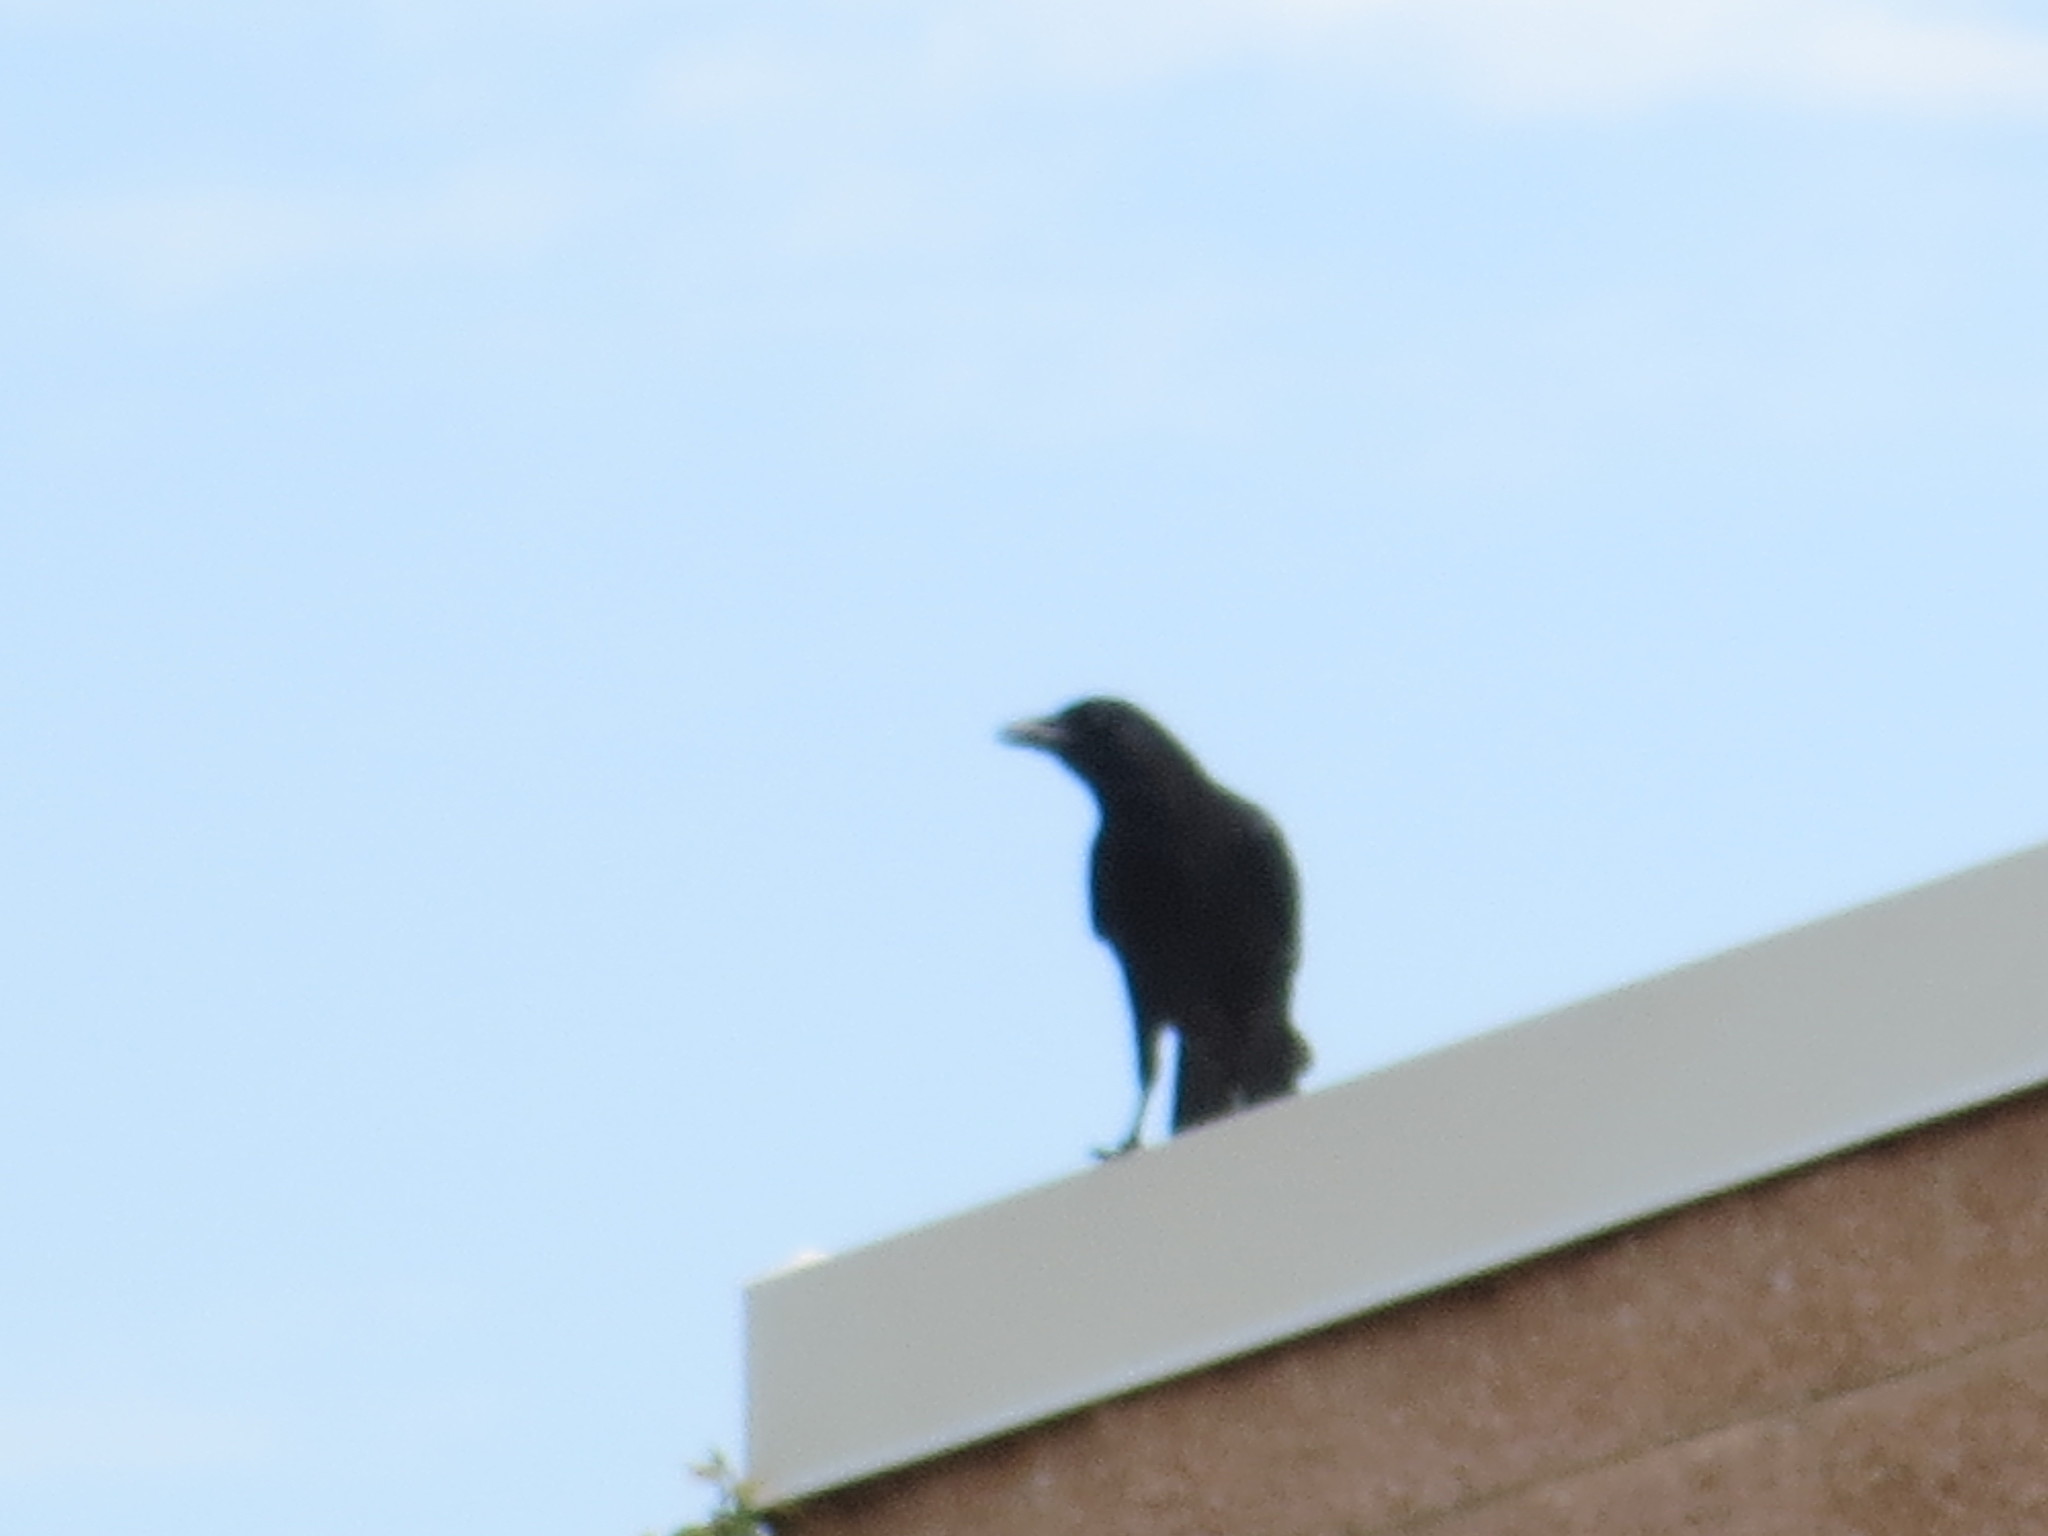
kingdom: Animalia
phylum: Chordata
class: Aves
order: Passeriformes
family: Corvidae
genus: Corvus
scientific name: Corvus brachyrhynchos
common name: American crow
